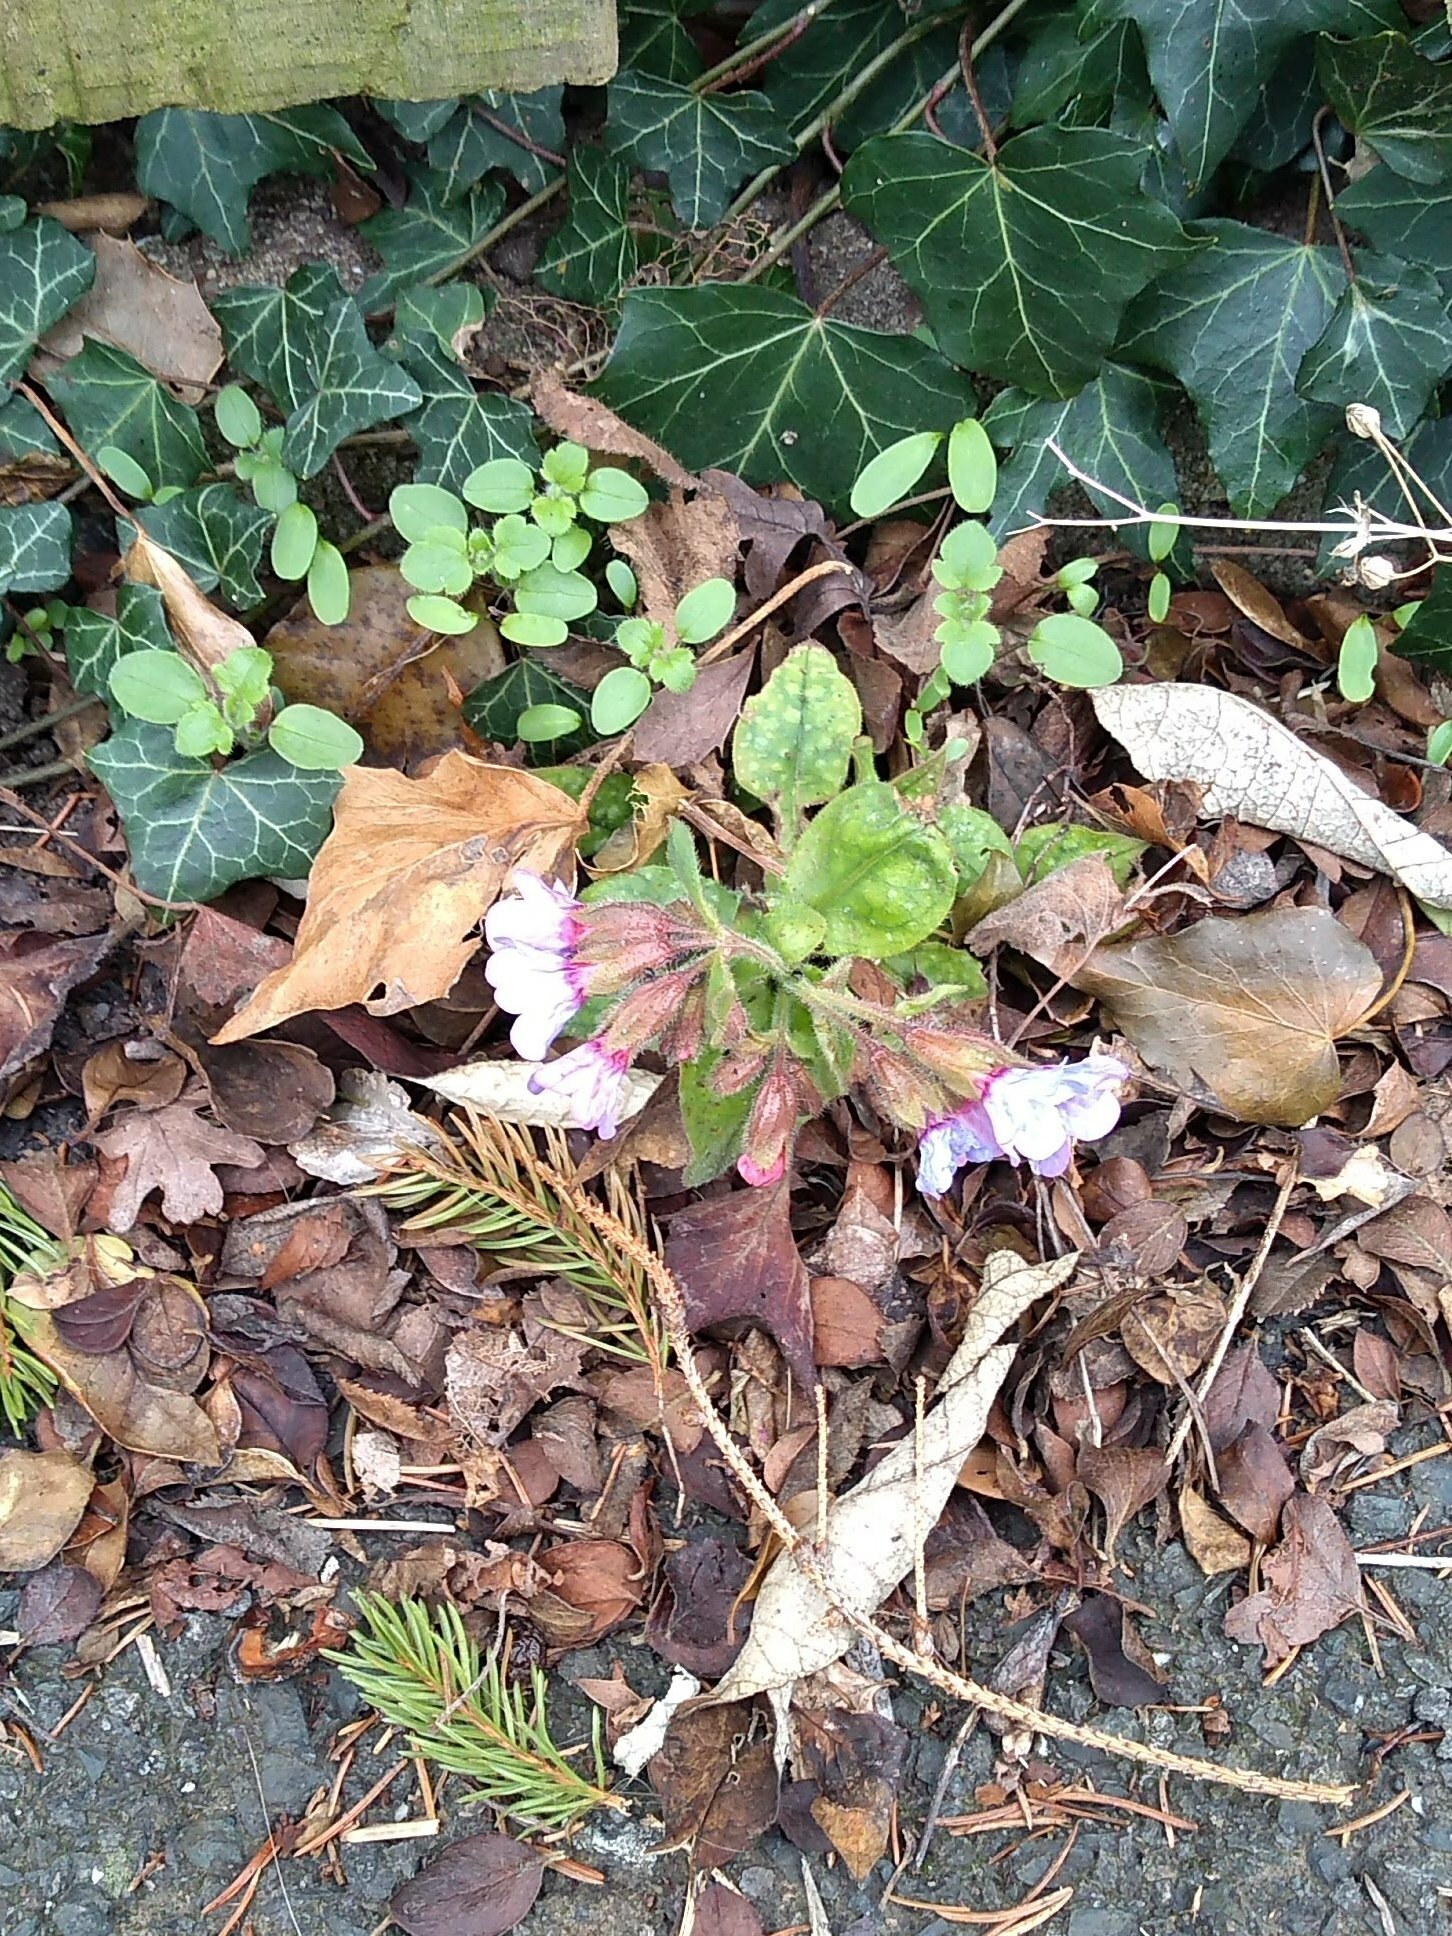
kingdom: Plantae
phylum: Tracheophyta
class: Magnoliopsida
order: Boraginales
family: Boraginaceae
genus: Pulmonaria
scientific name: Pulmonaria officinalis
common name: Lungwort
